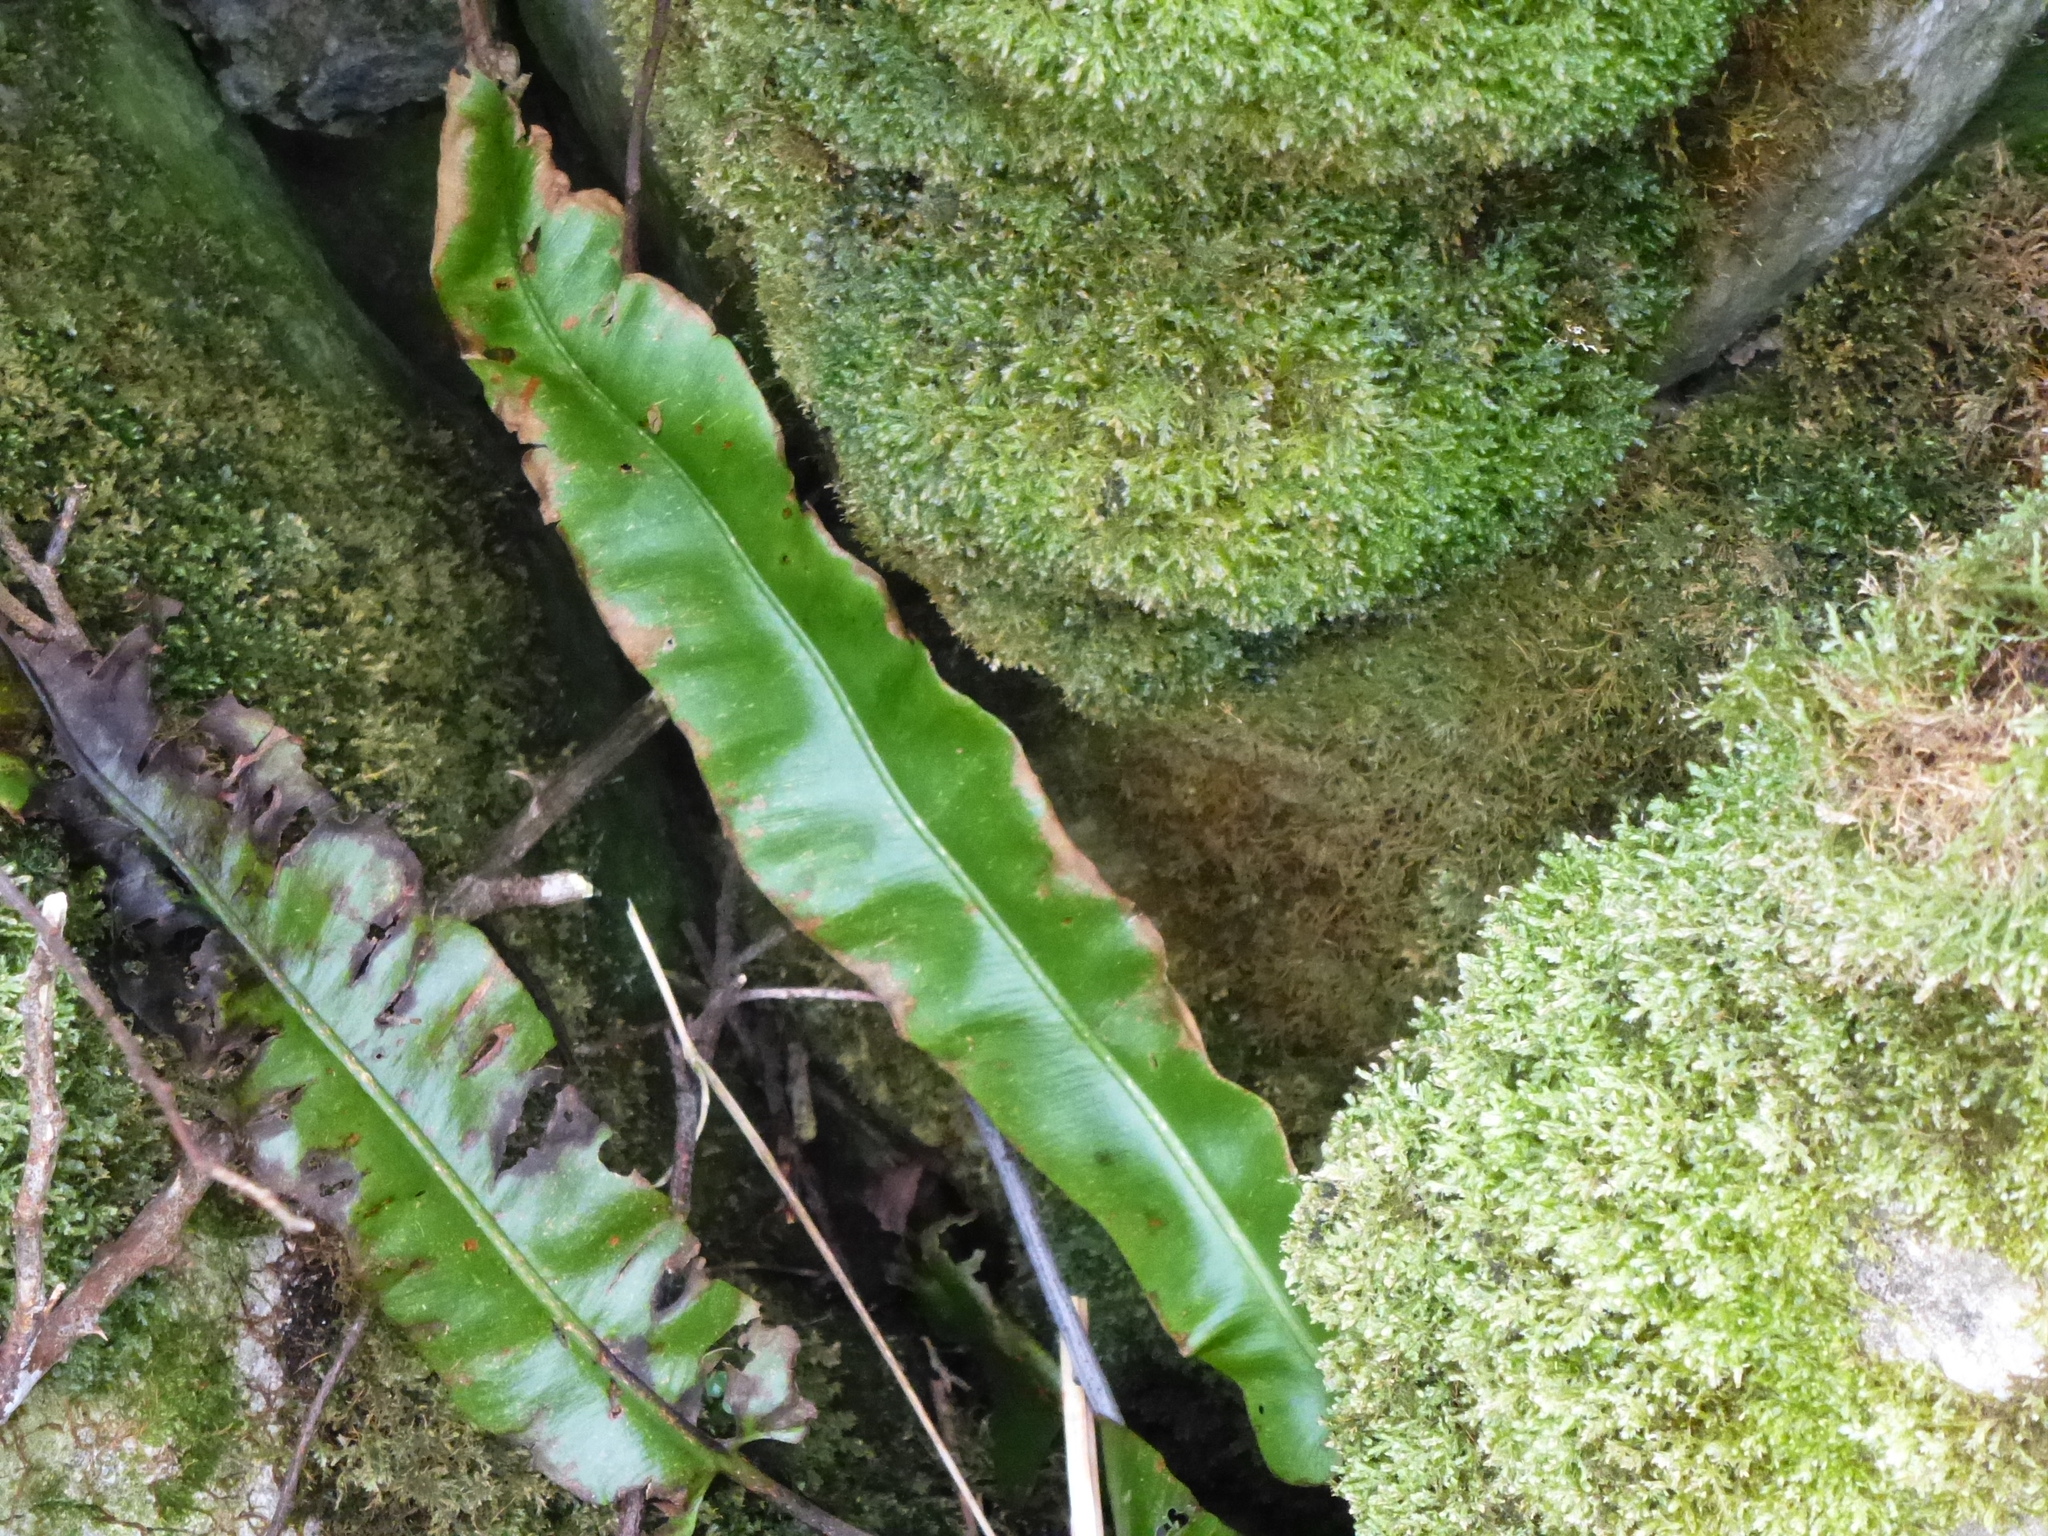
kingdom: Plantae
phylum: Tracheophyta
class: Polypodiopsida
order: Polypodiales
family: Aspleniaceae
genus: Asplenium
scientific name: Asplenium scolopendrium
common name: Hart's-tongue fern
